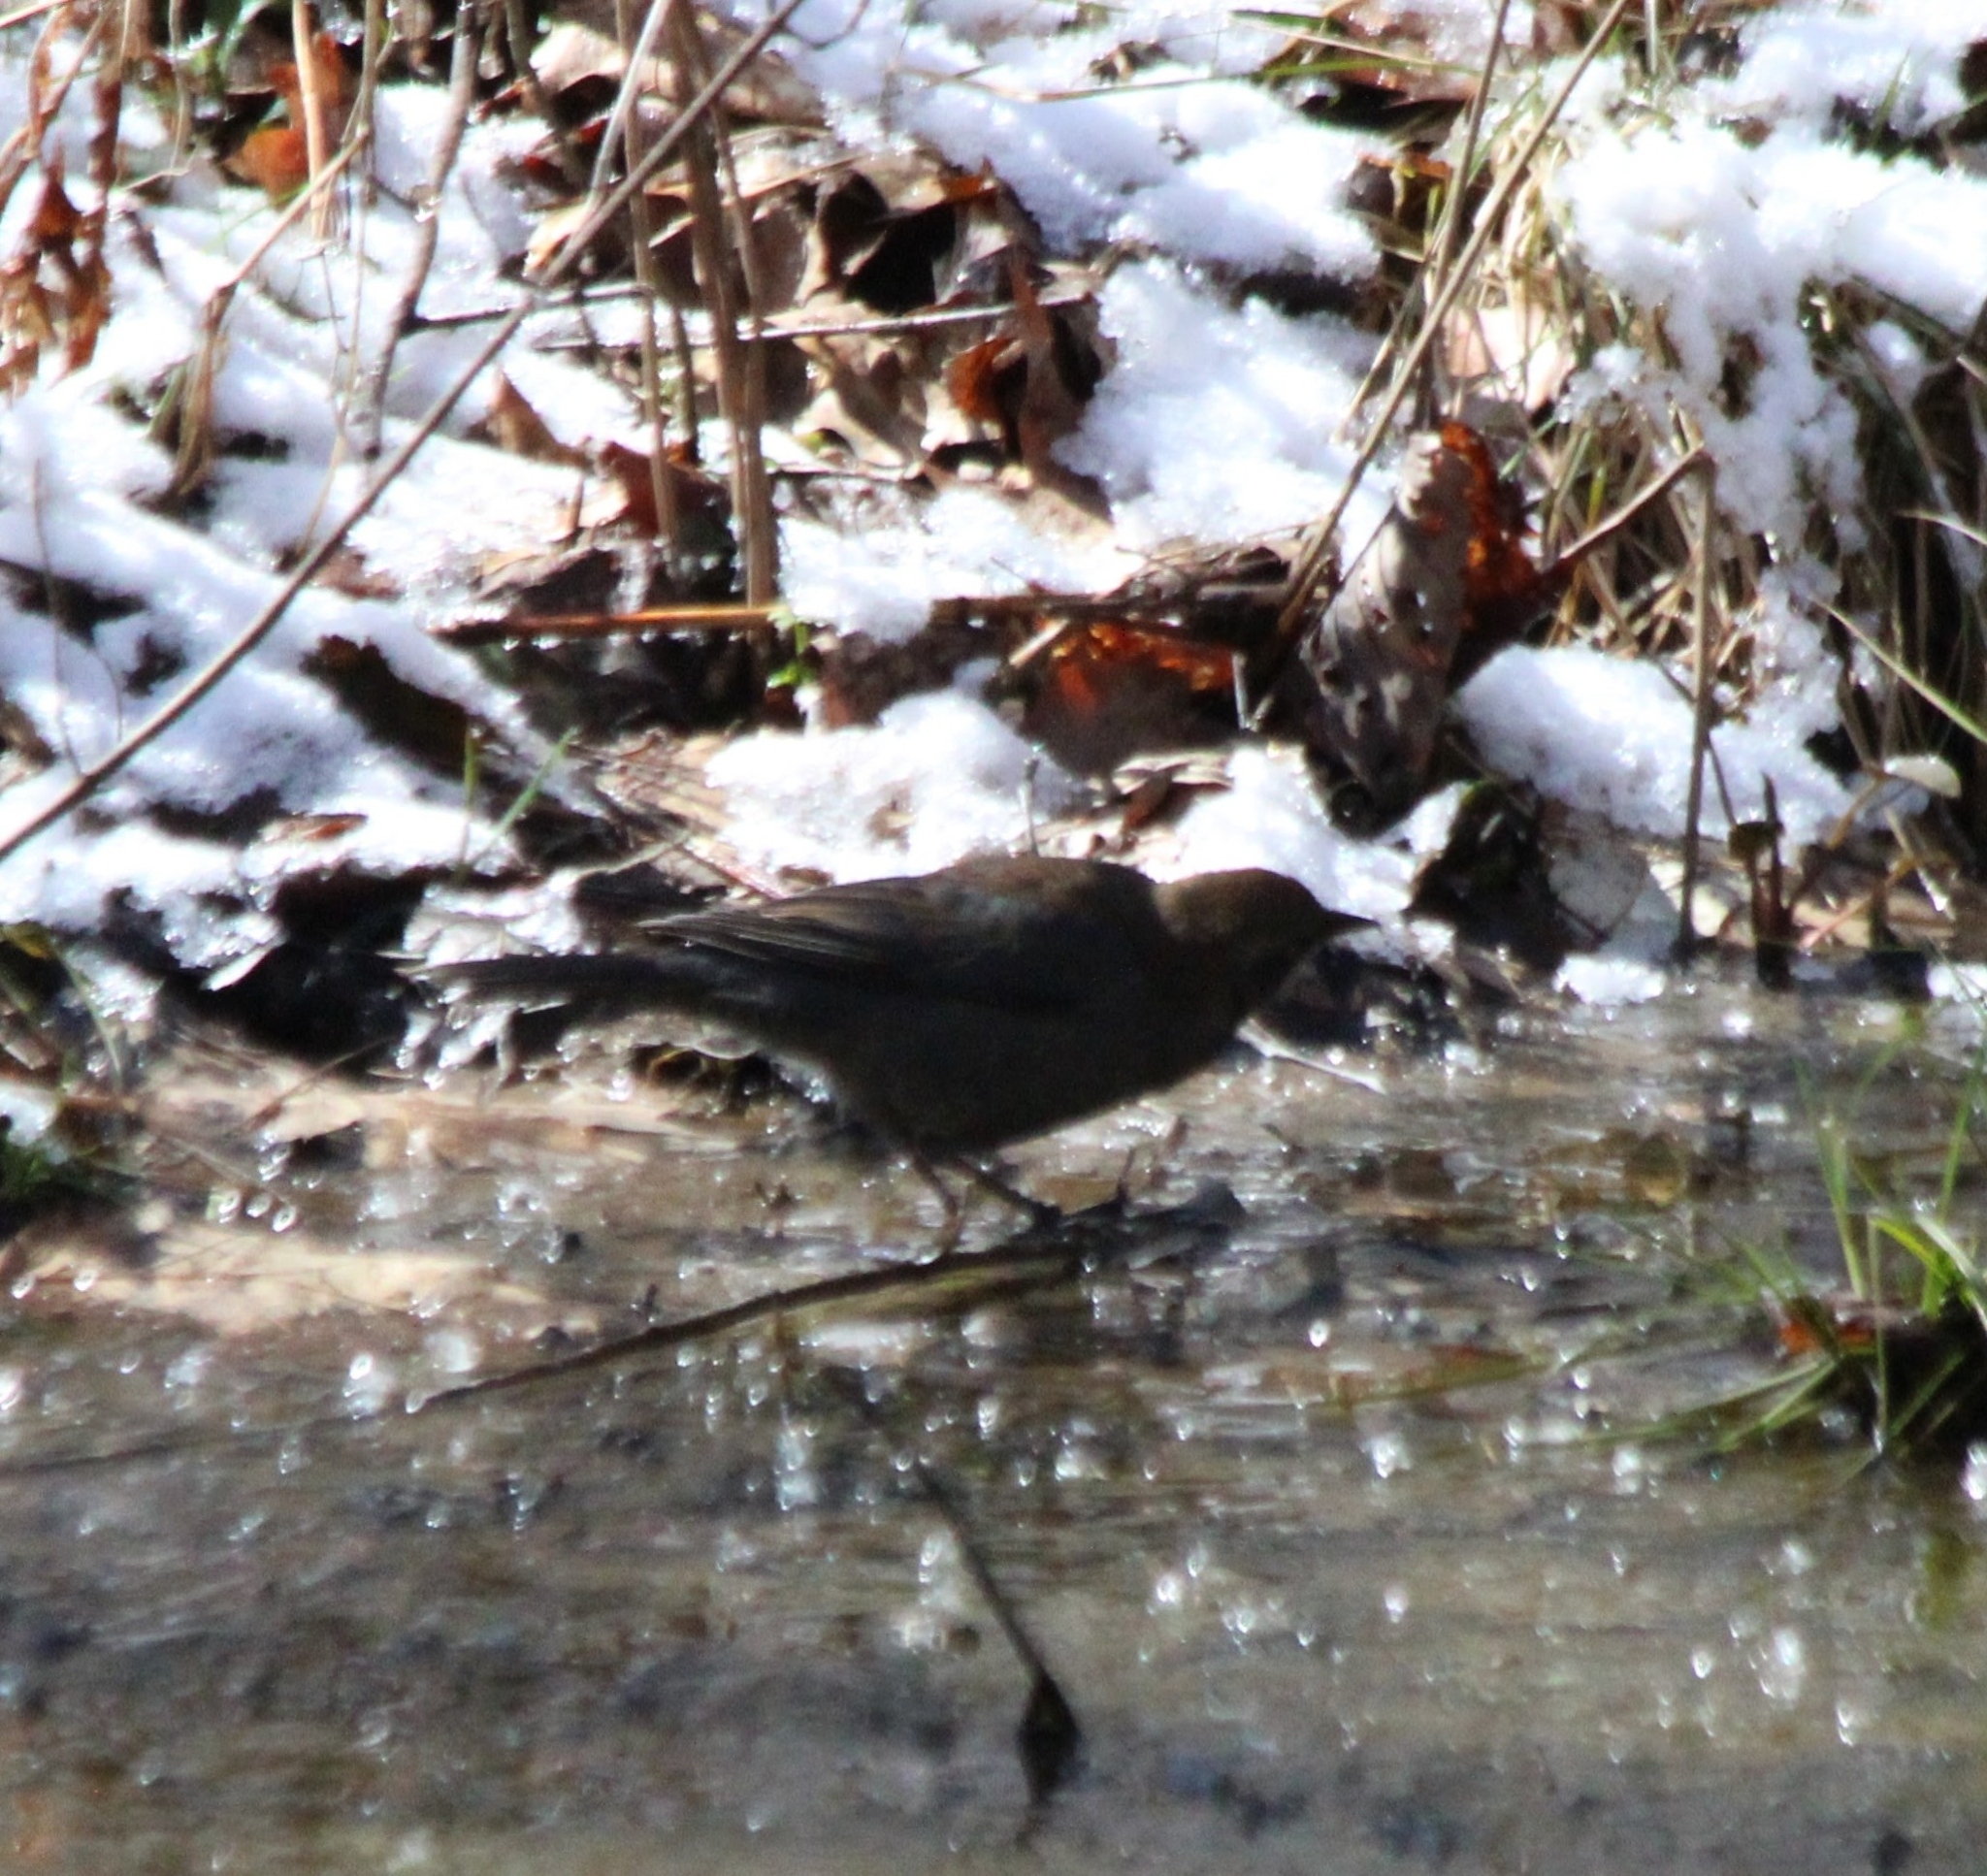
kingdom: Animalia
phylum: Chordata
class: Aves
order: Passeriformes
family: Icteridae
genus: Euphagus
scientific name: Euphagus carolinus
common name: Rusty blackbird
